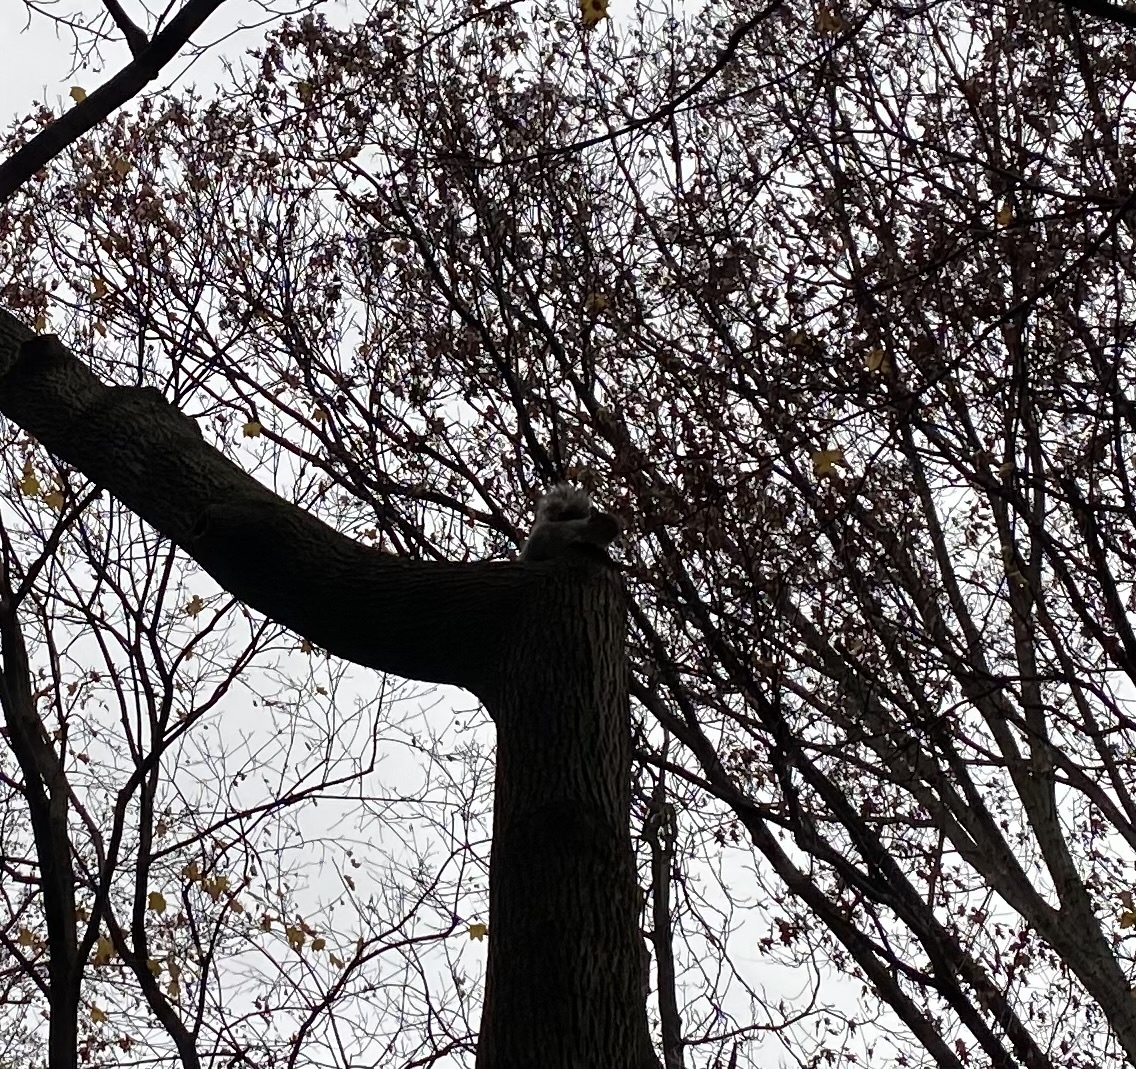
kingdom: Animalia
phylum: Chordata
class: Mammalia
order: Rodentia
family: Sciuridae
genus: Sciurus
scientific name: Sciurus carolinensis
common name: Eastern gray squirrel
